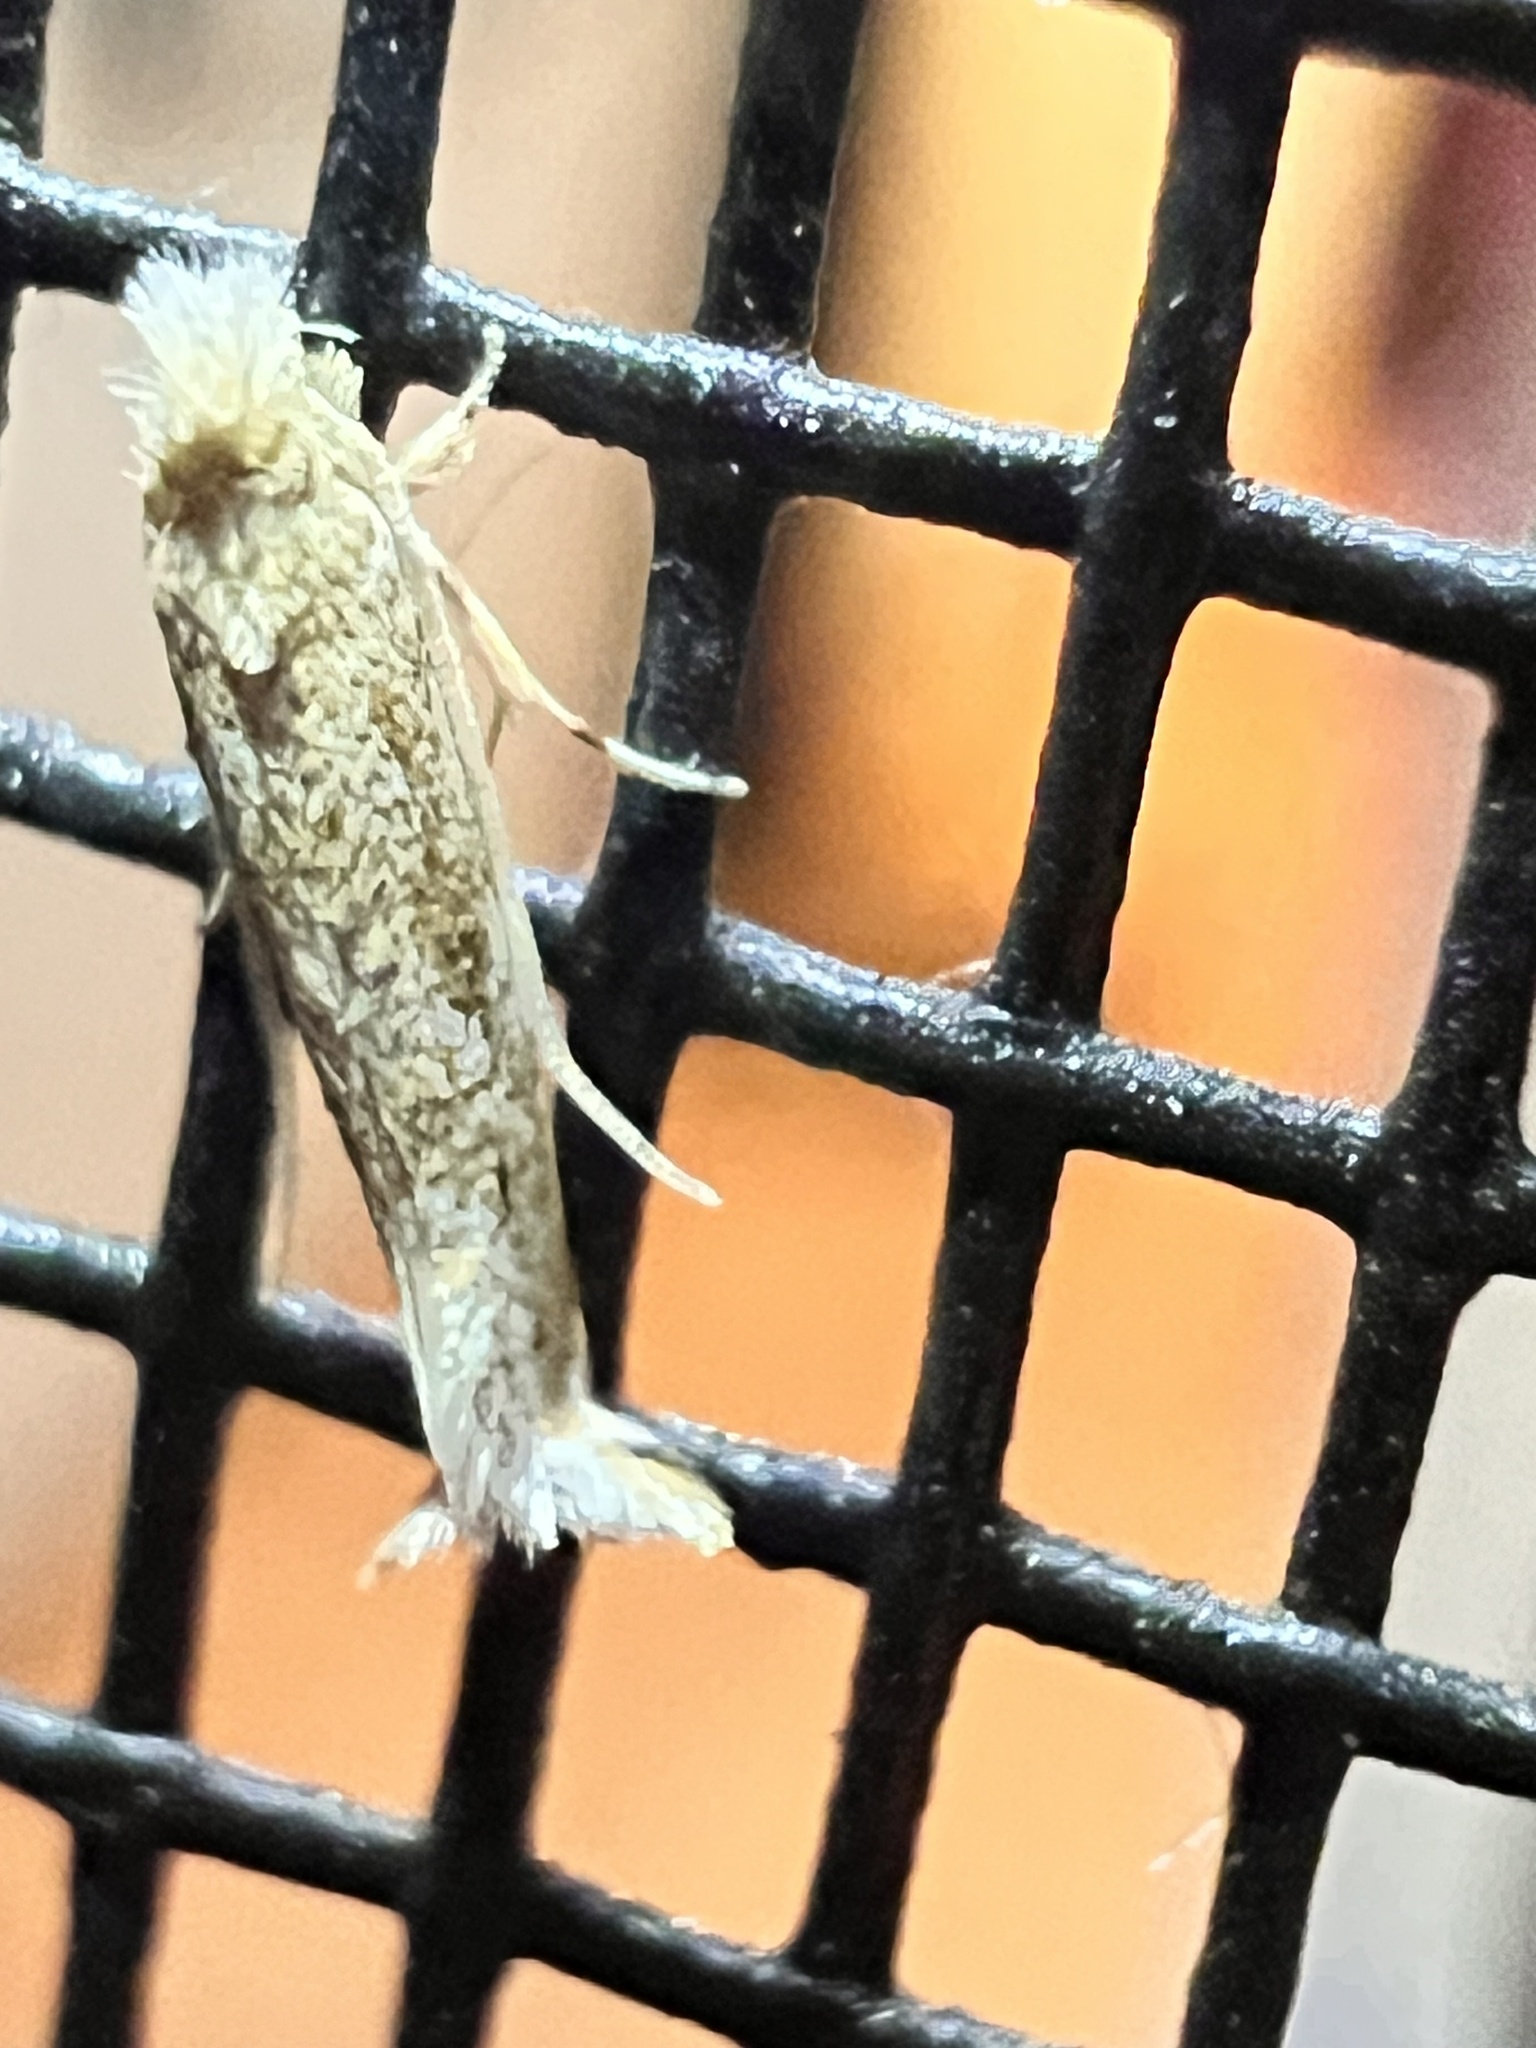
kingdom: Animalia
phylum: Arthropoda
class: Insecta
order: Lepidoptera
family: Tineidae
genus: Erechthias
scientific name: Erechthias minuscula
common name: Fungus moth
